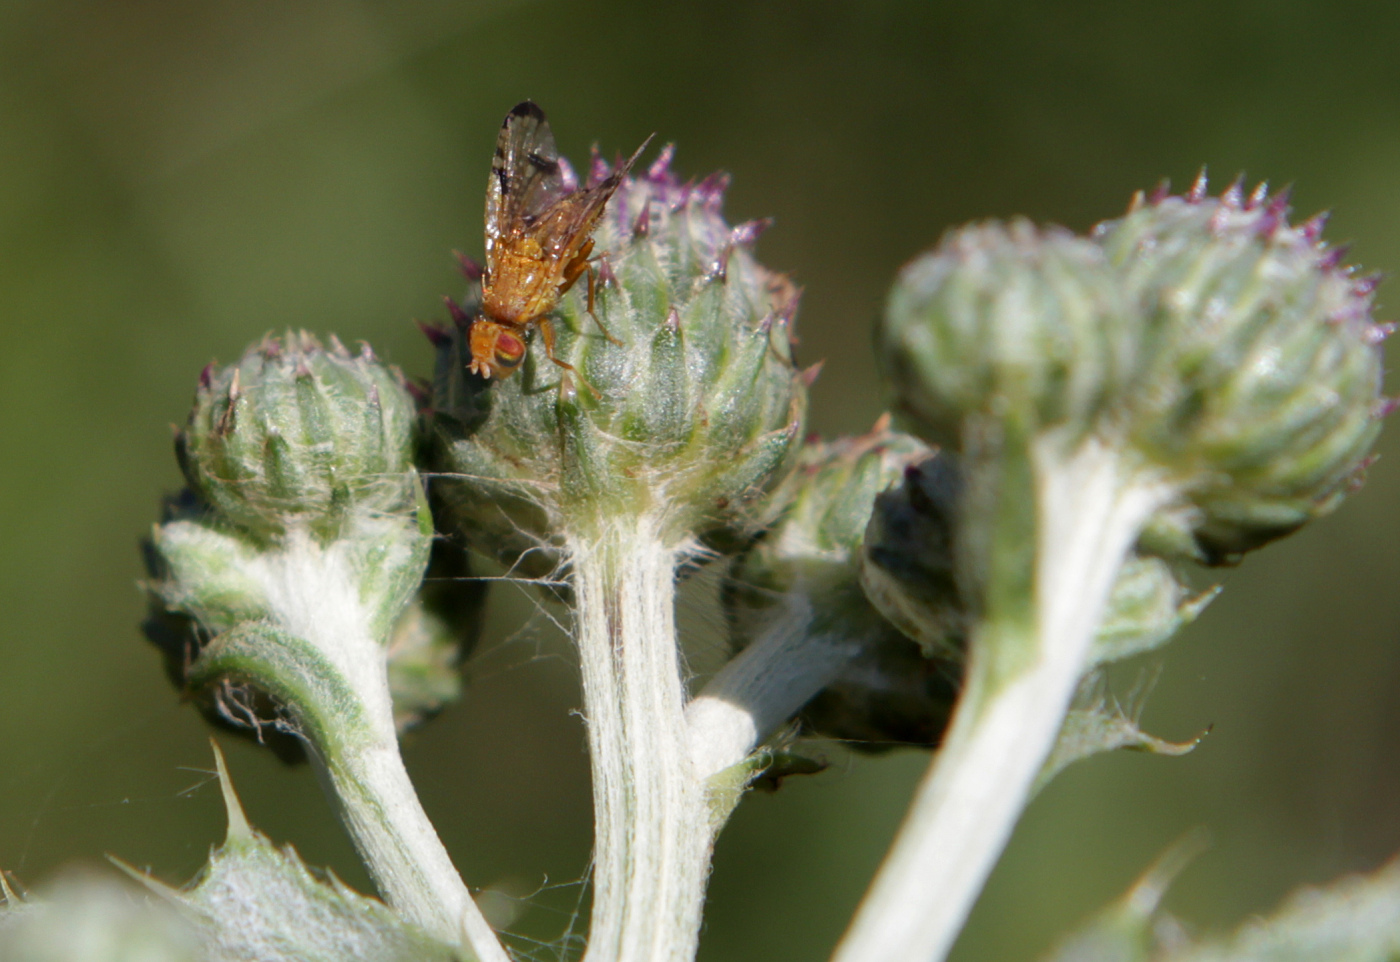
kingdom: Animalia
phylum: Arthropoda
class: Insecta
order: Diptera
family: Tephritidae
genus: Xyphosia
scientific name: Xyphosia miliaria
